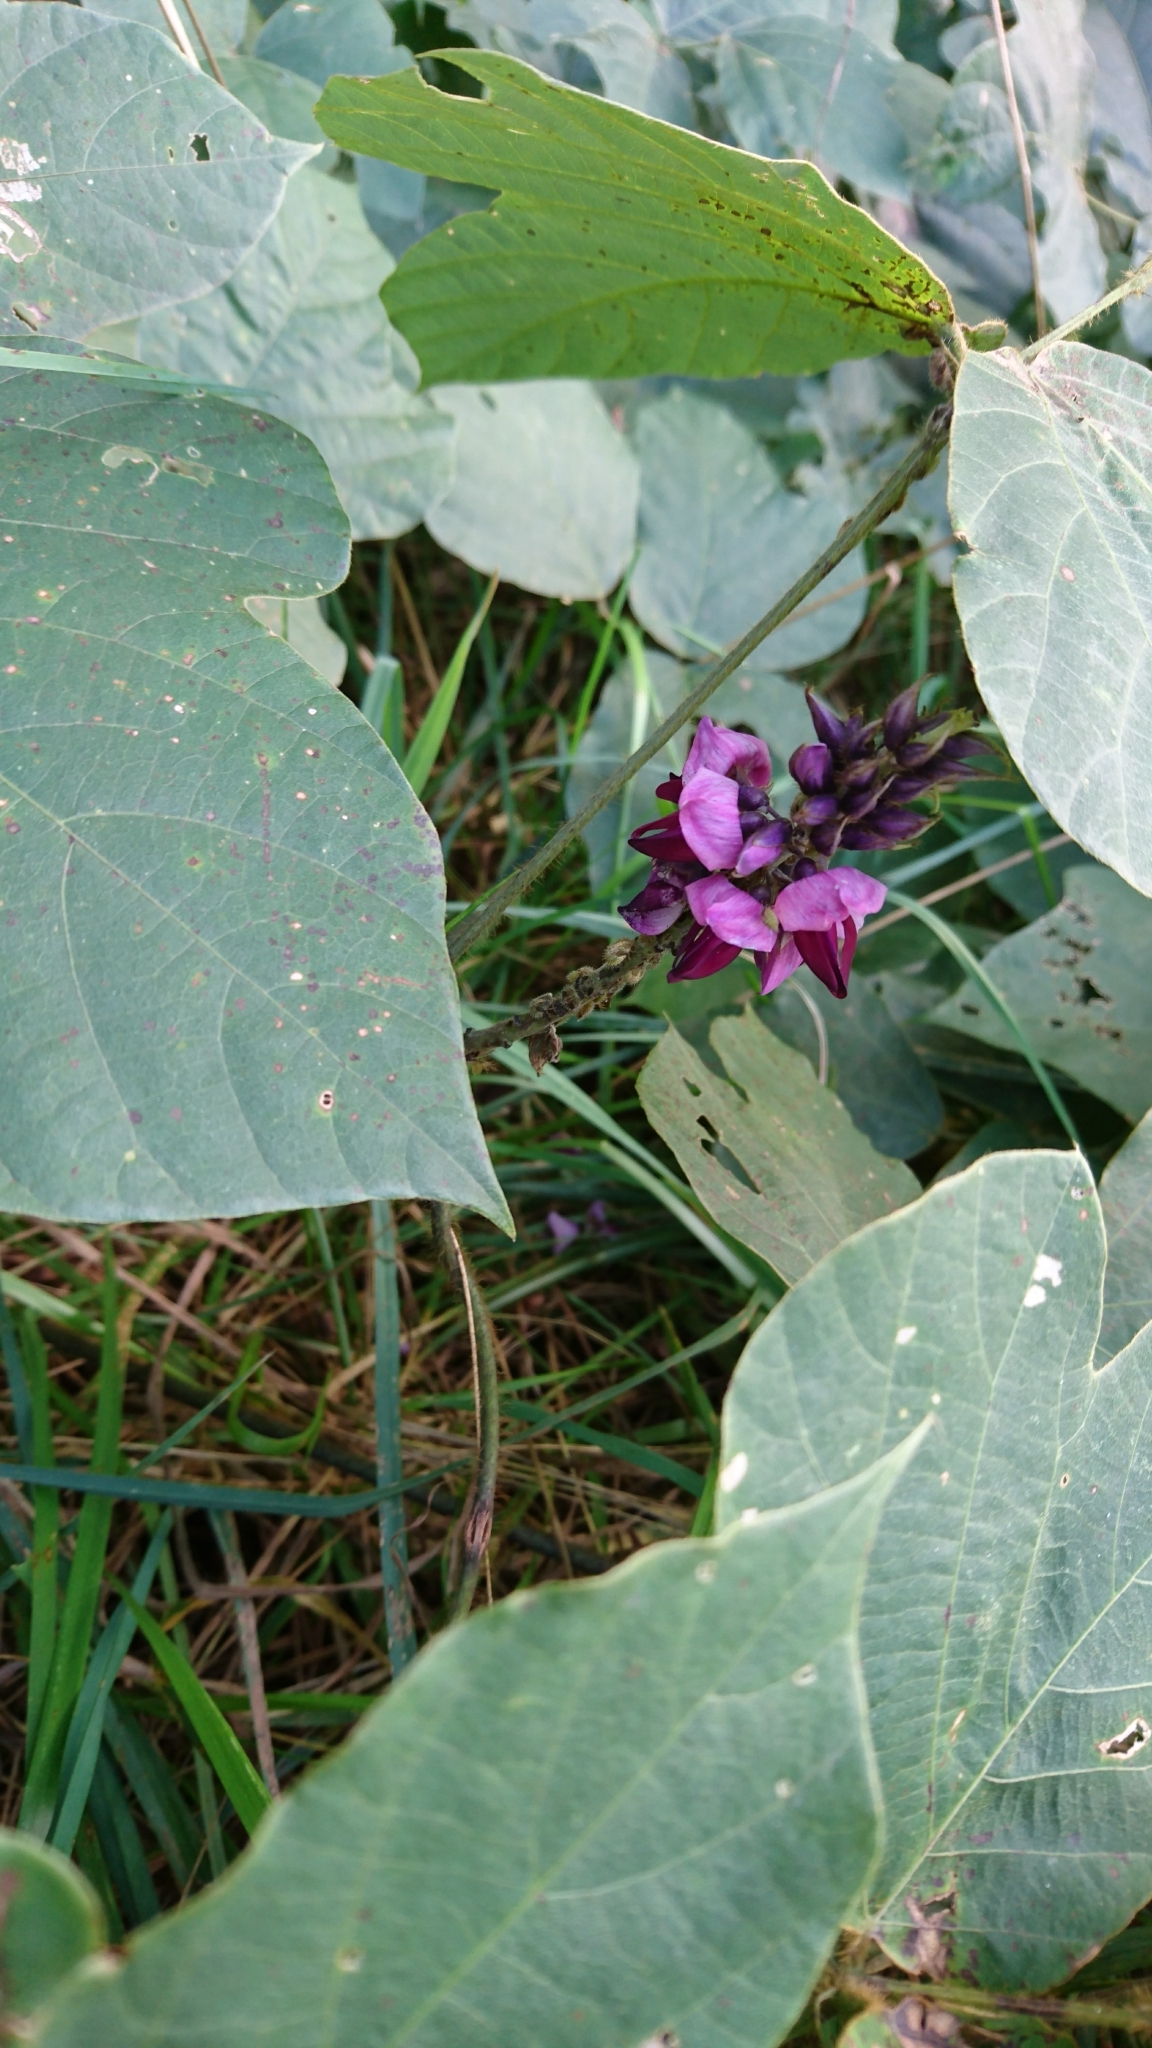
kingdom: Plantae
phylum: Tracheophyta
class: Magnoliopsida
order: Fabales
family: Fabaceae
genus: Pueraria
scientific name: Pueraria montana
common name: Kudzu
